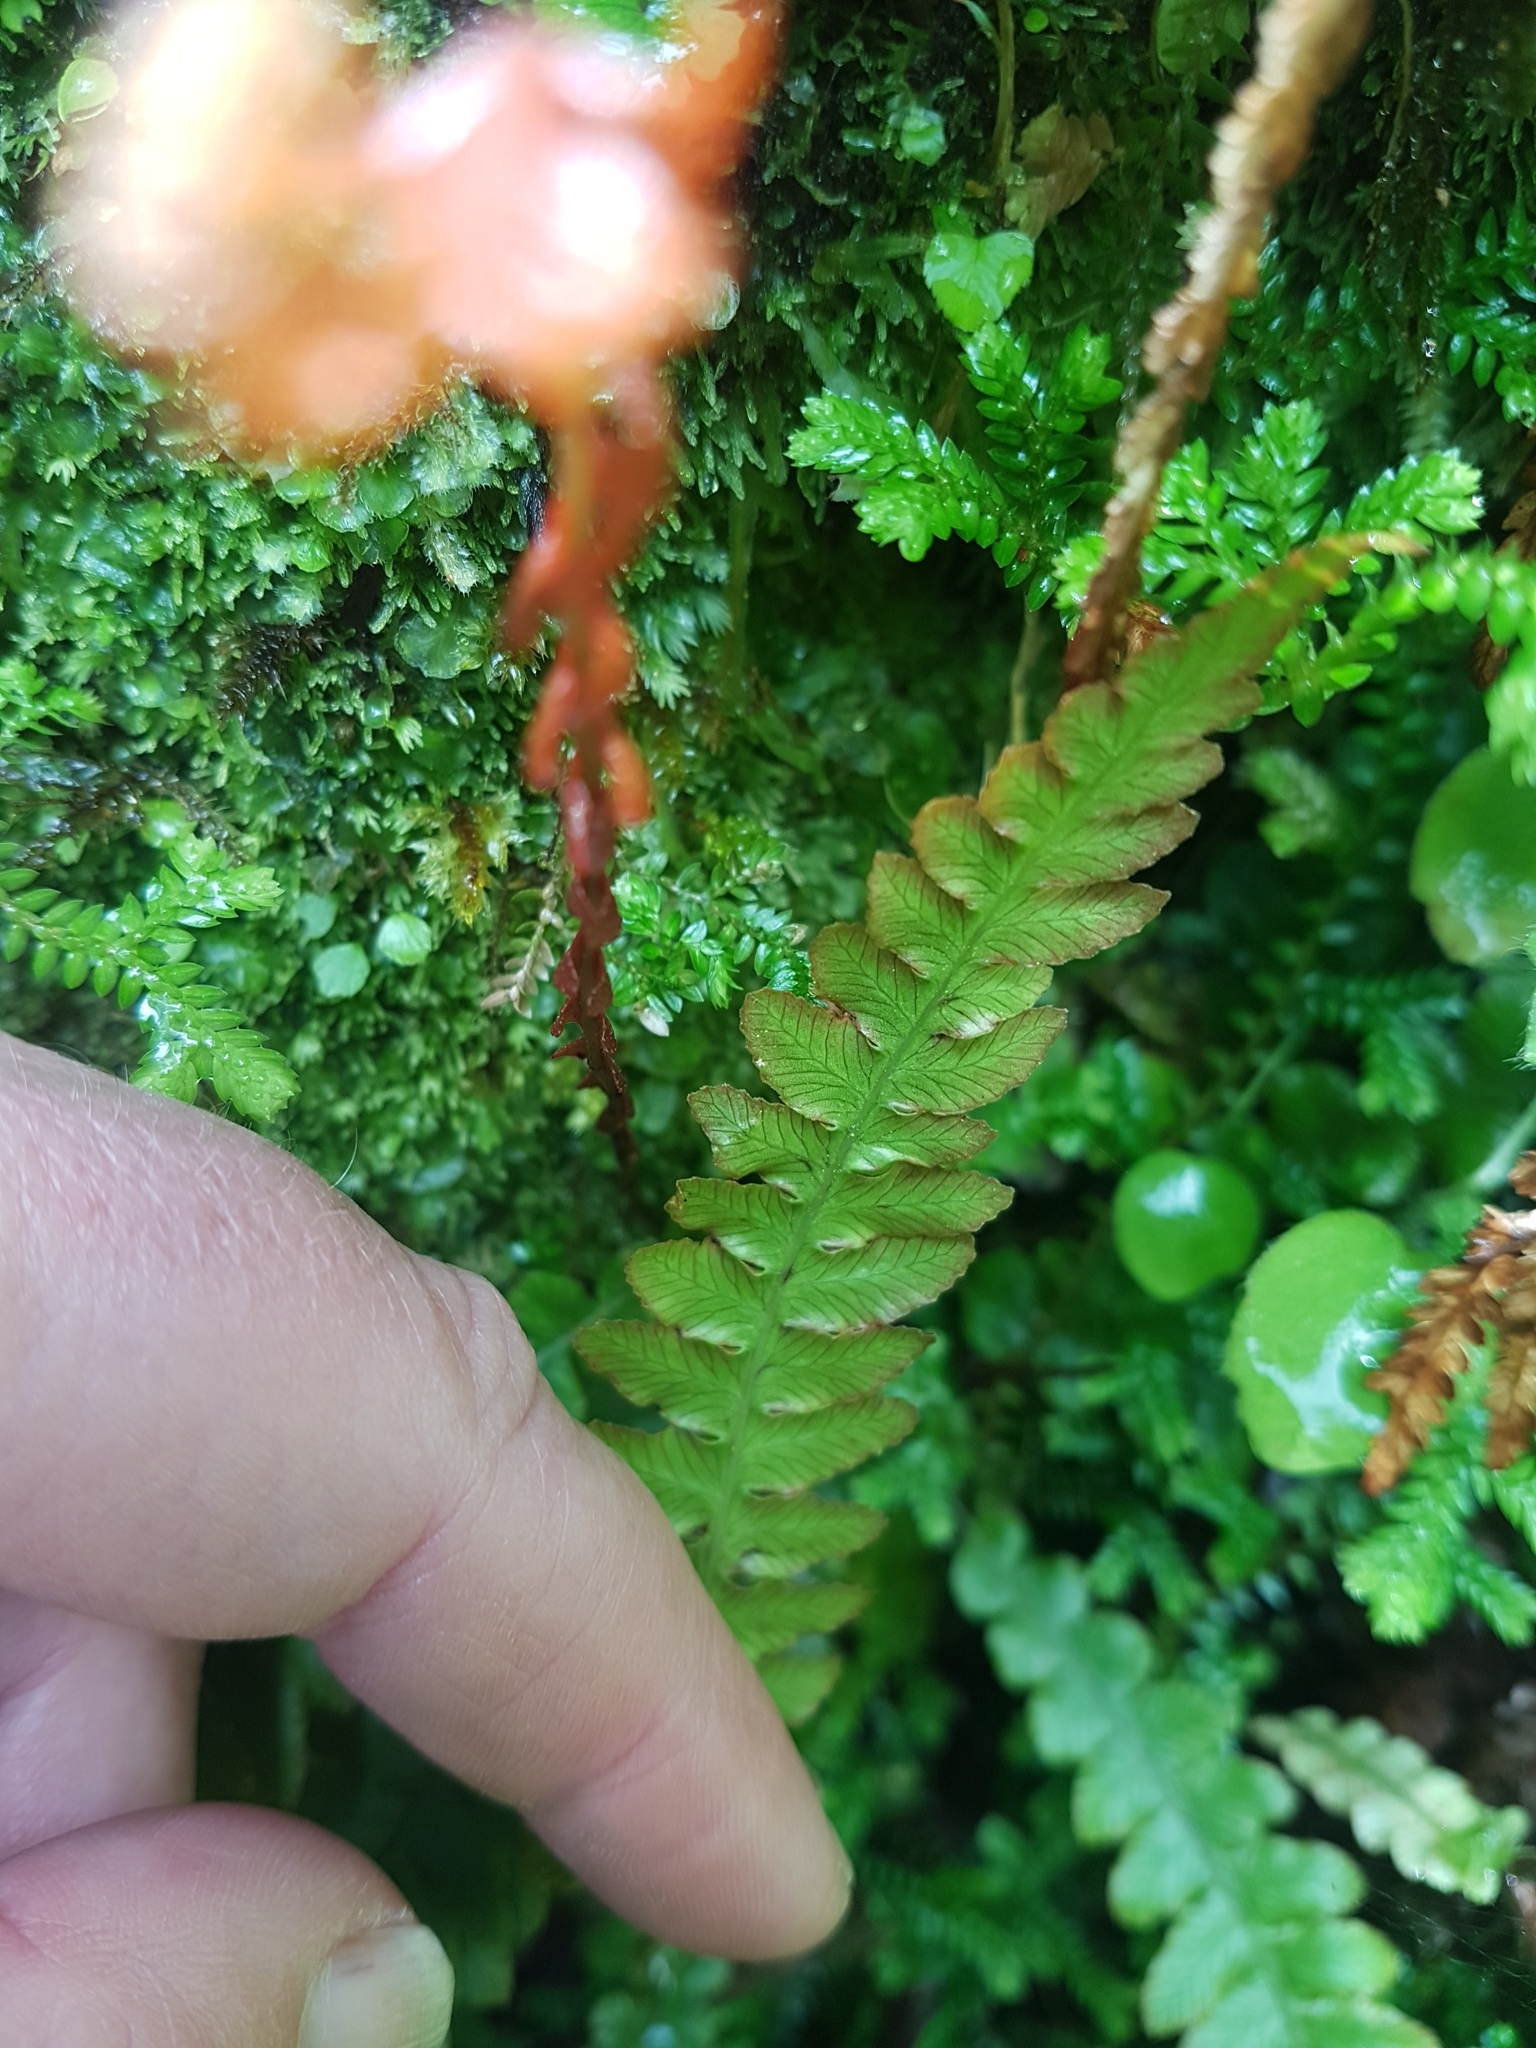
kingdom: Plantae
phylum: Tracheophyta
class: Polypodiopsida
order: Polypodiales
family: Blechnaceae
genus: Austroblechnum
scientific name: Austroblechnum membranaceum
